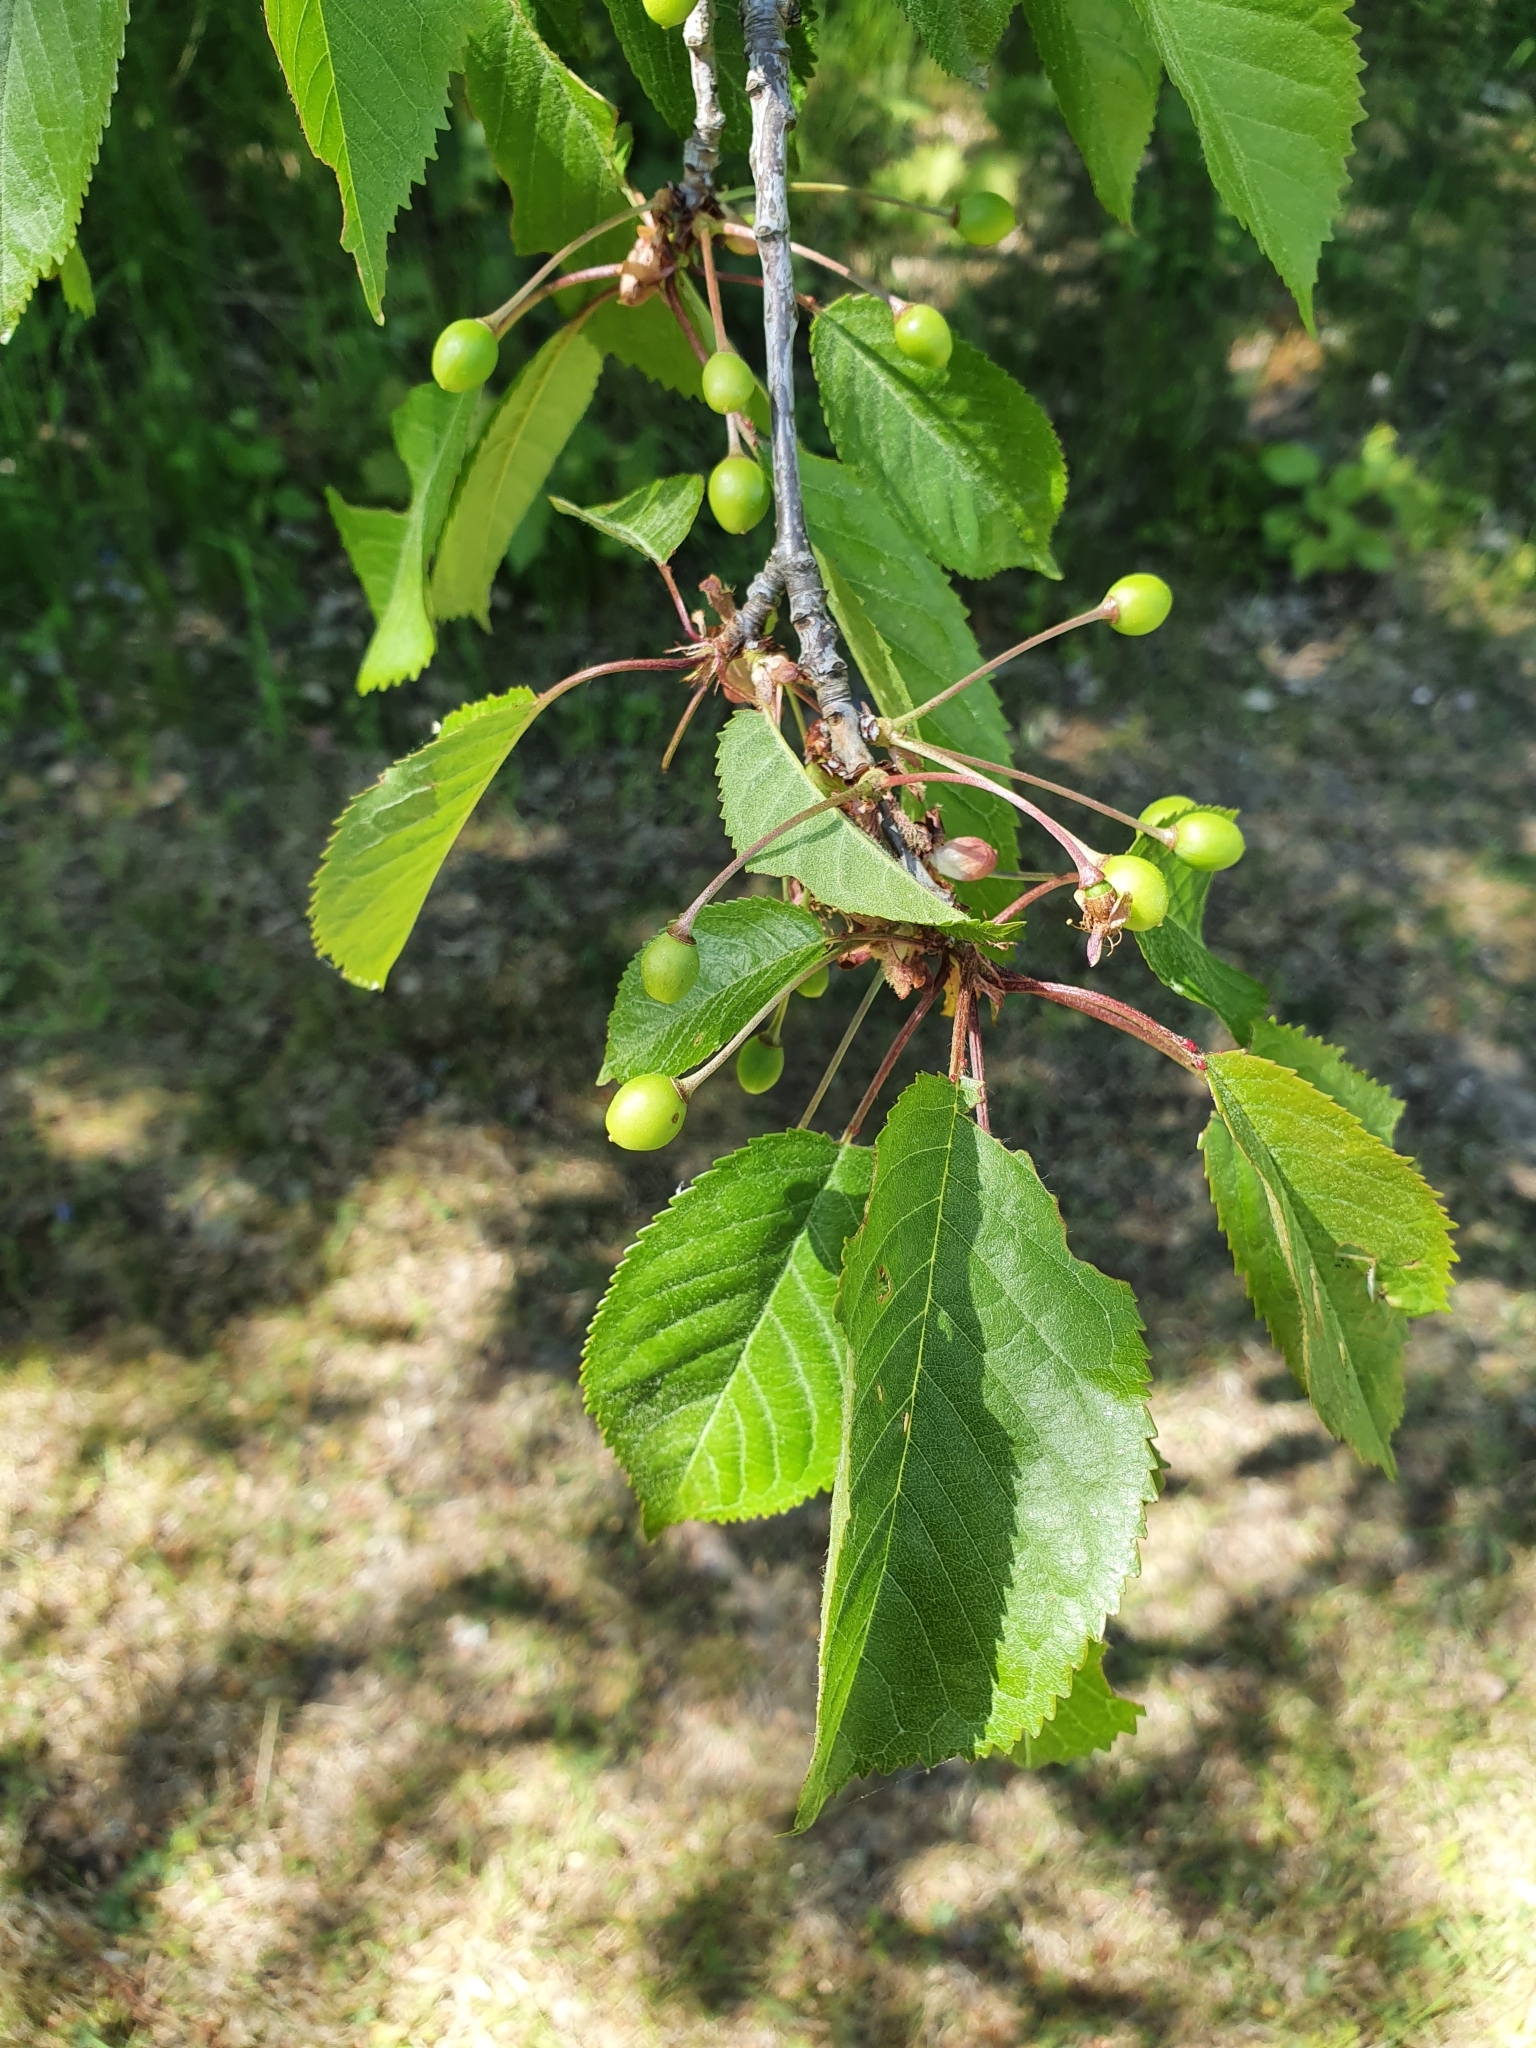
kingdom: Plantae
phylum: Tracheophyta
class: Magnoliopsida
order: Rosales
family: Rosaceae
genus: Prunus
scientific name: Prunus avium
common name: Sweet cherry
